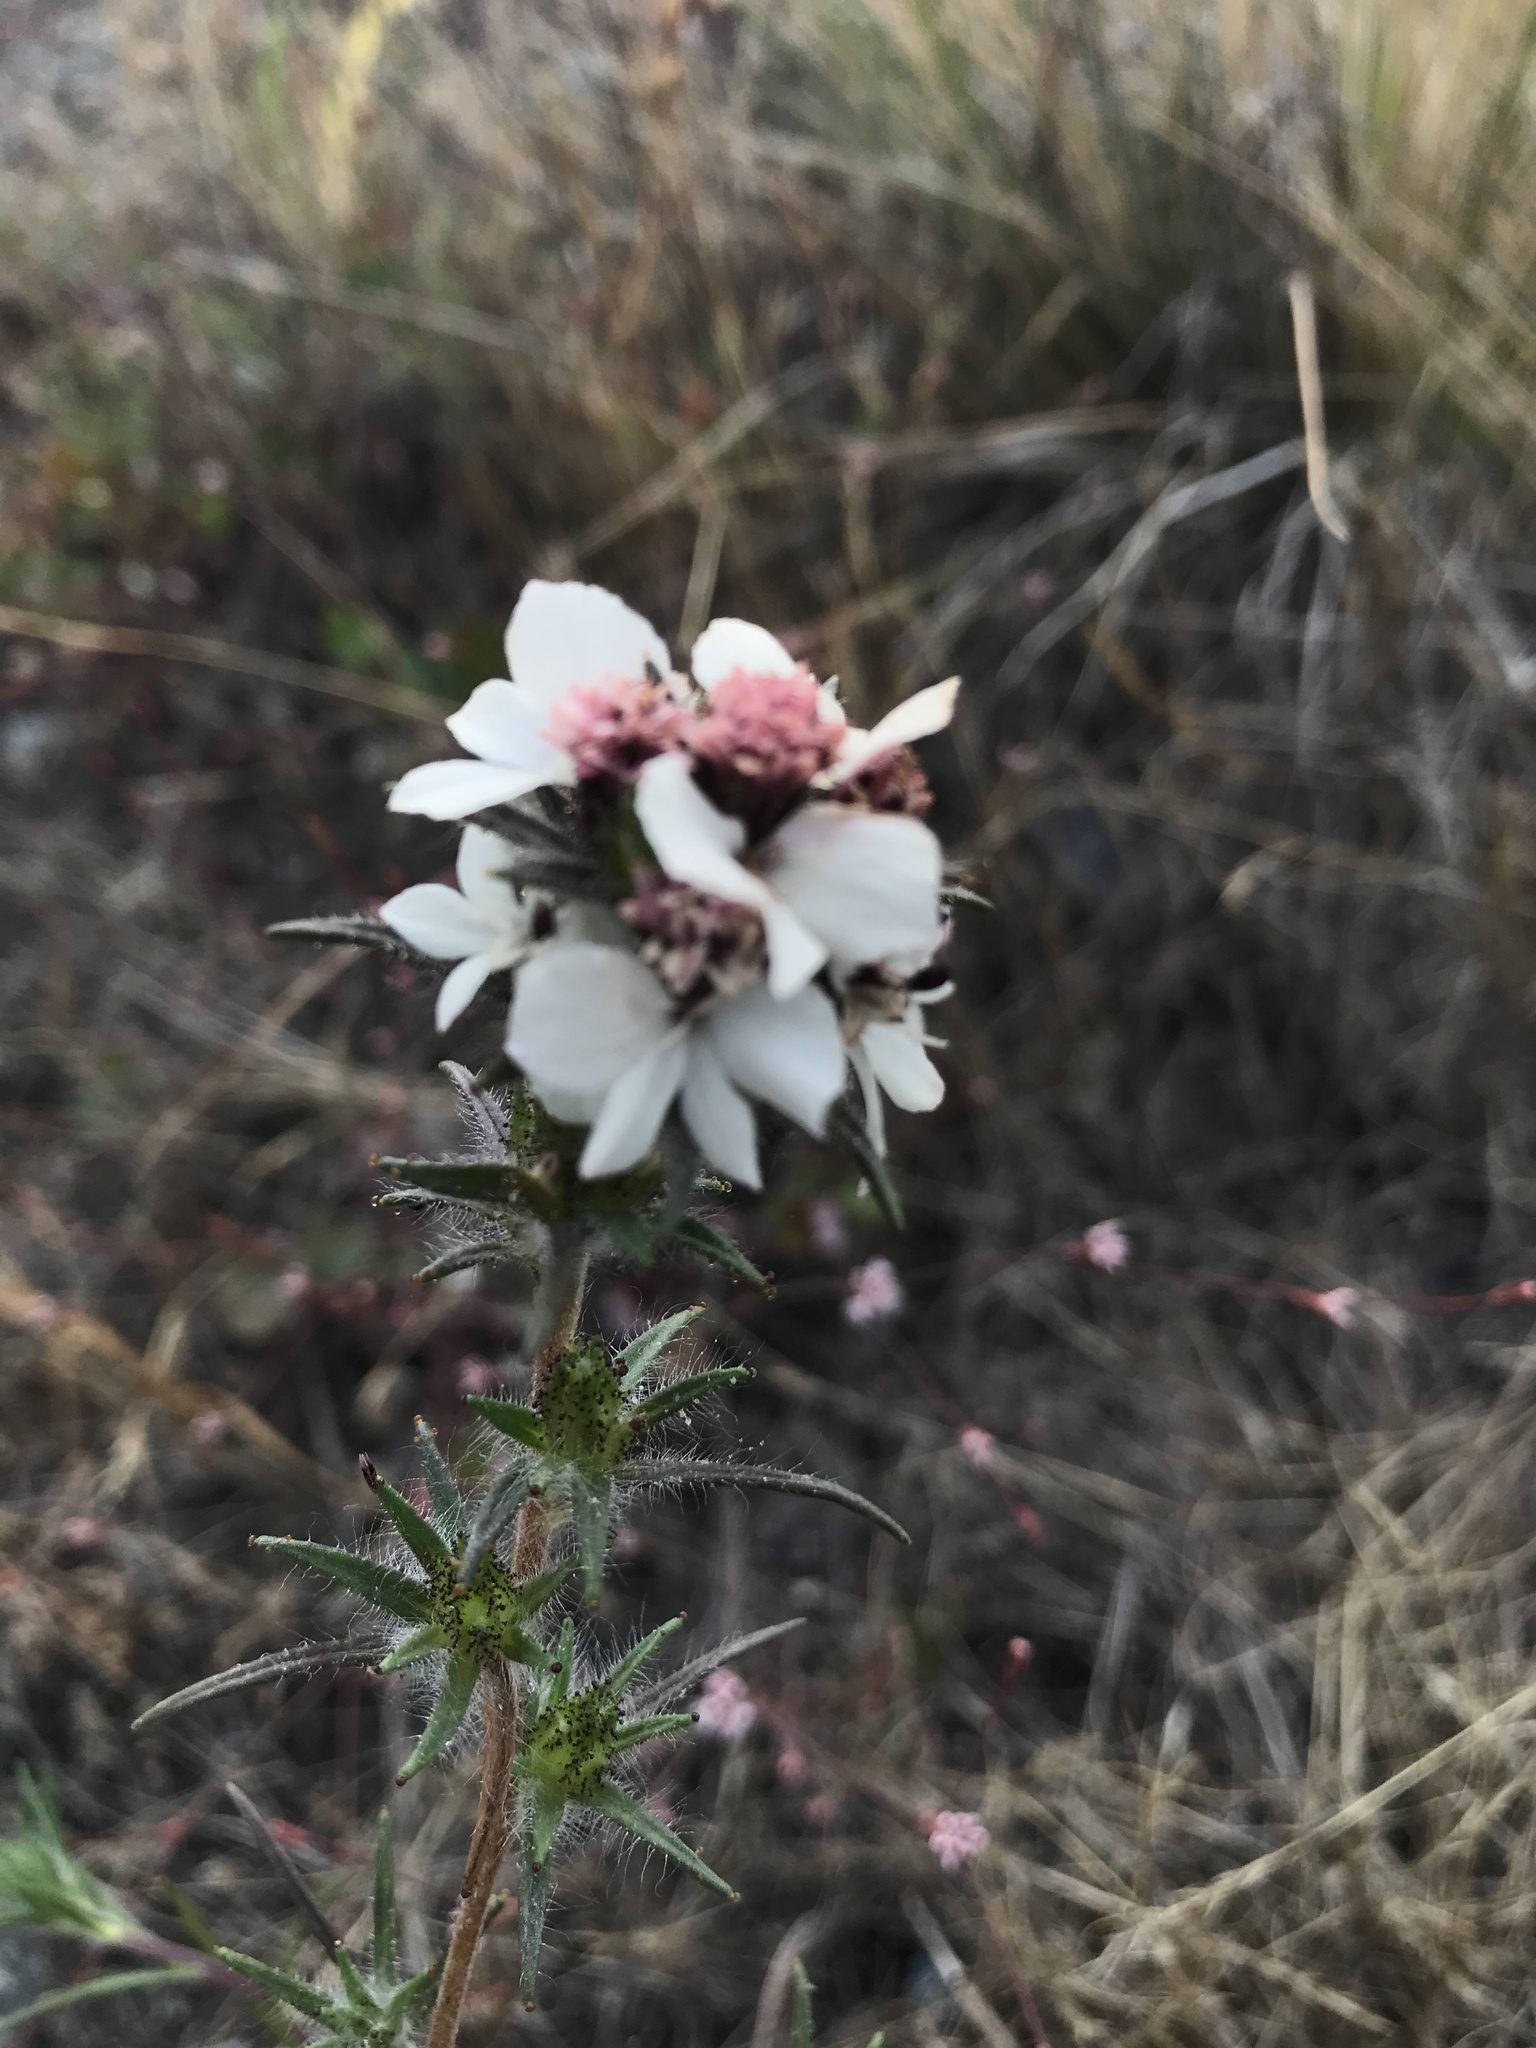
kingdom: Plantae
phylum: Tracheophyta
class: Magnoliopsida
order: Asterales
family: Asteraceae
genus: Calycadenia
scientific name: Calycadenia multiglandulosa
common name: Sticky calycadenia
